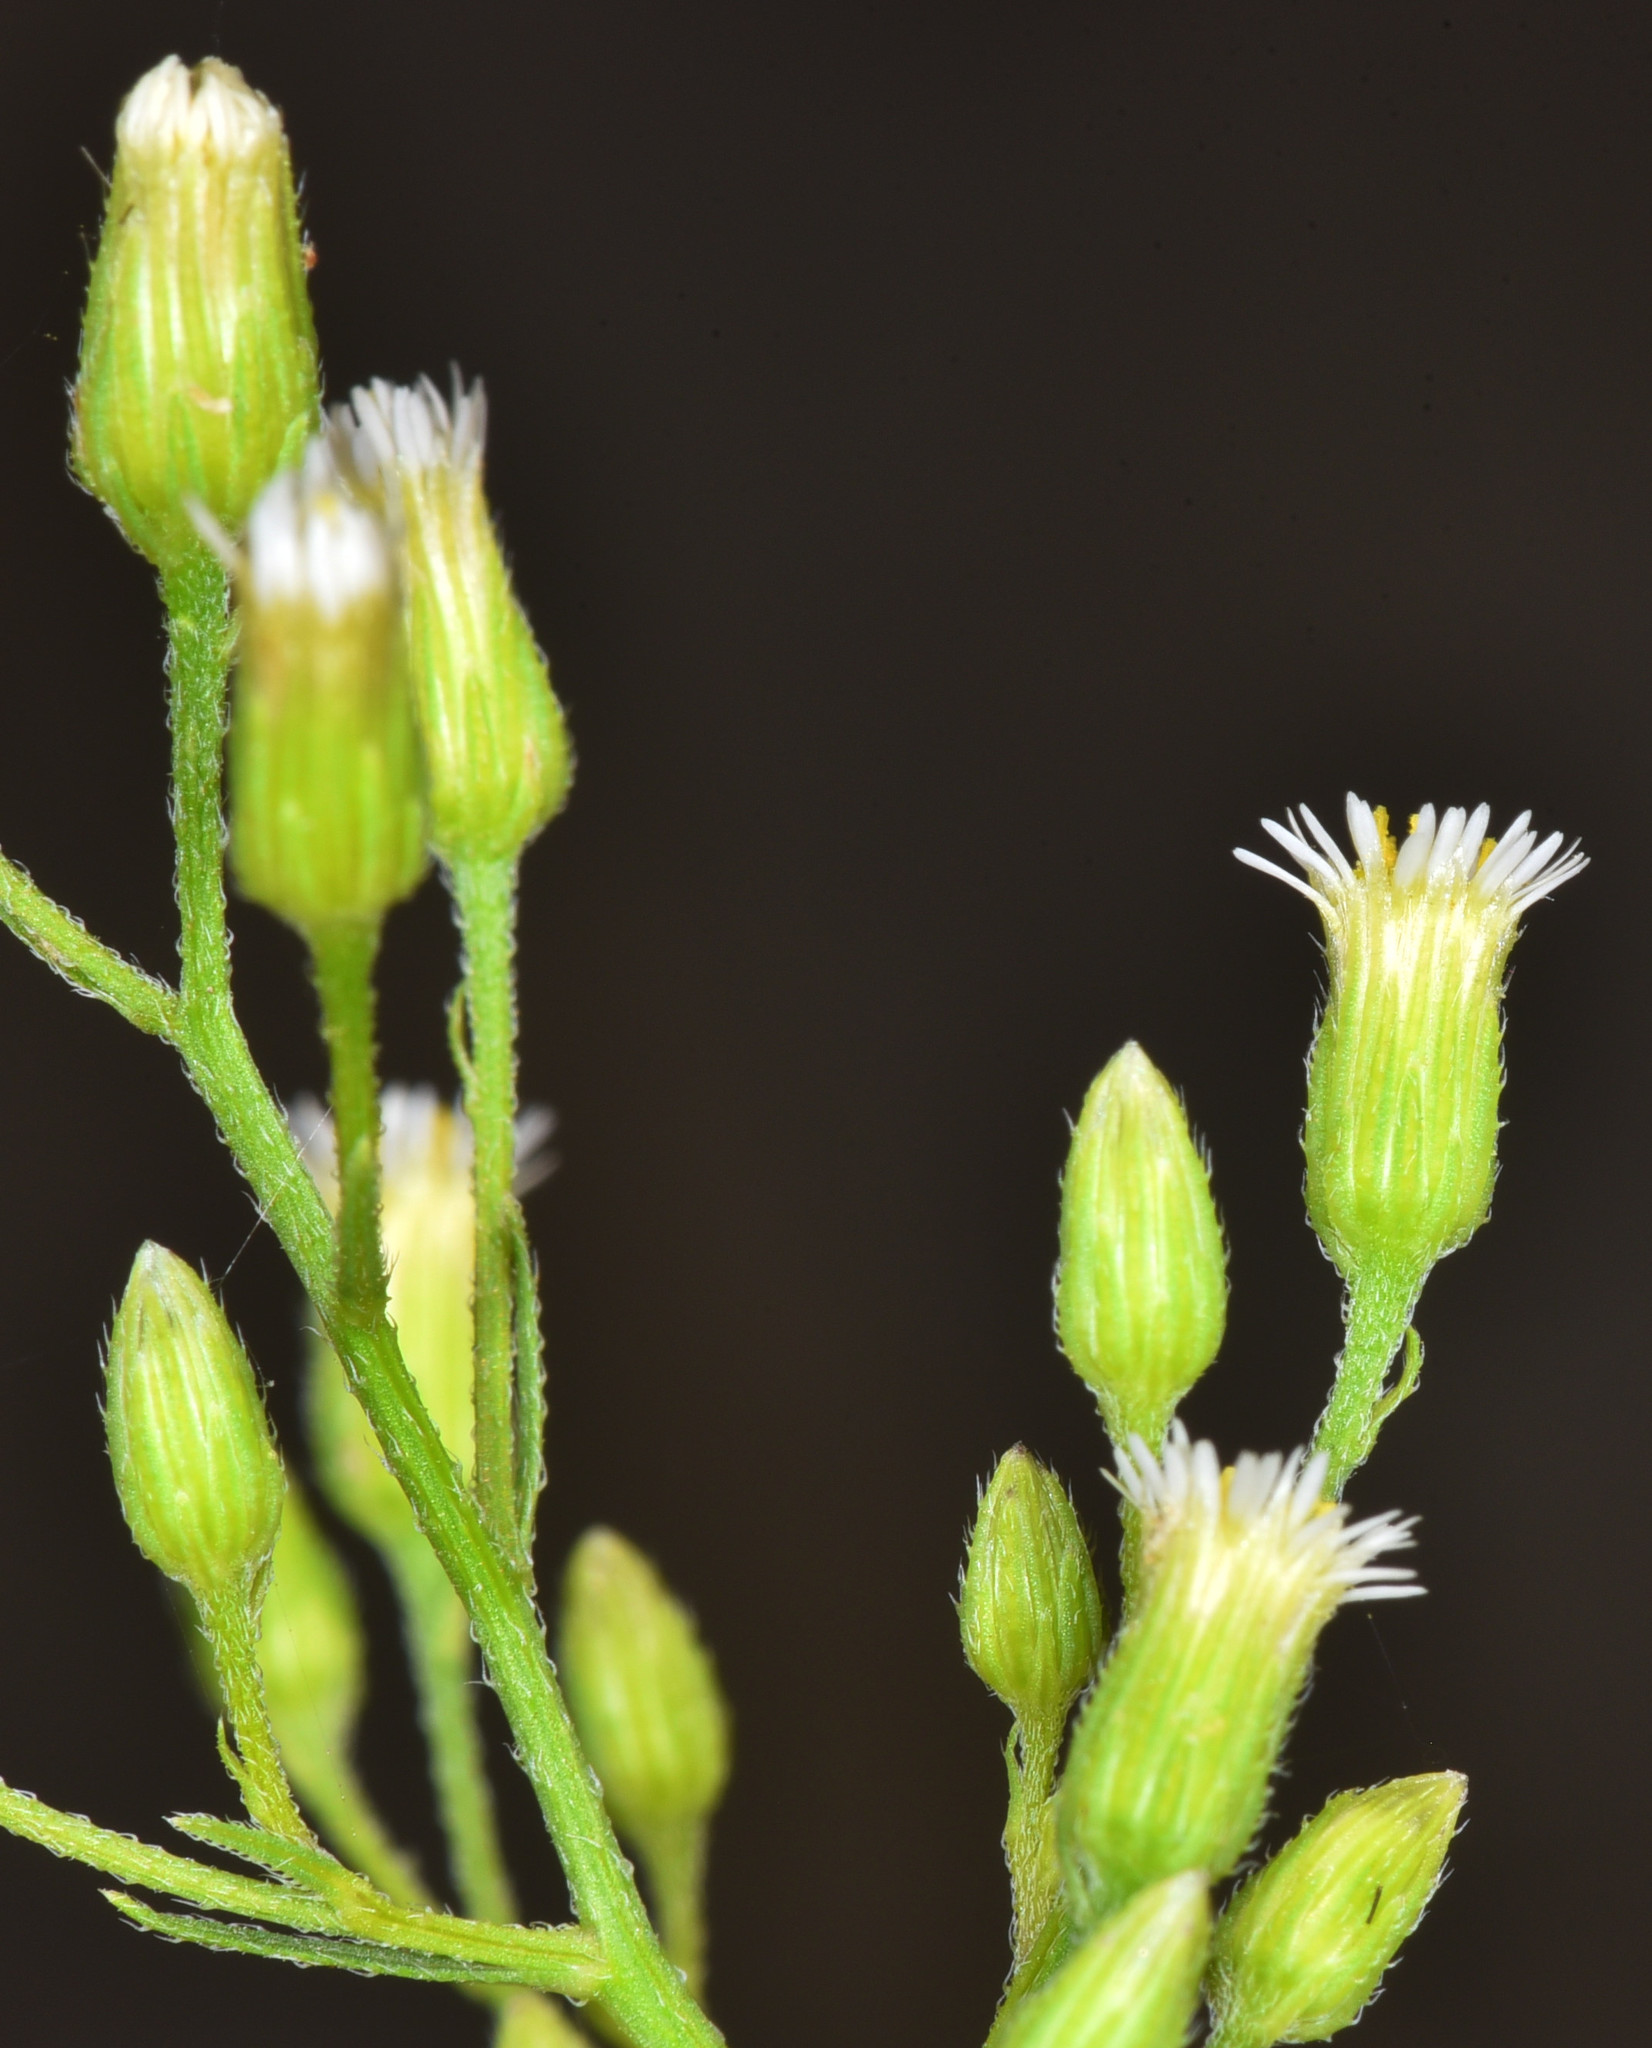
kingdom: Plantae
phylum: Tracheophyta
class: Magnoliopsida
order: Asterales
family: Asteraceae
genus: Erigeron
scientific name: Erigeron canadensis
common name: Canadian fleabane
